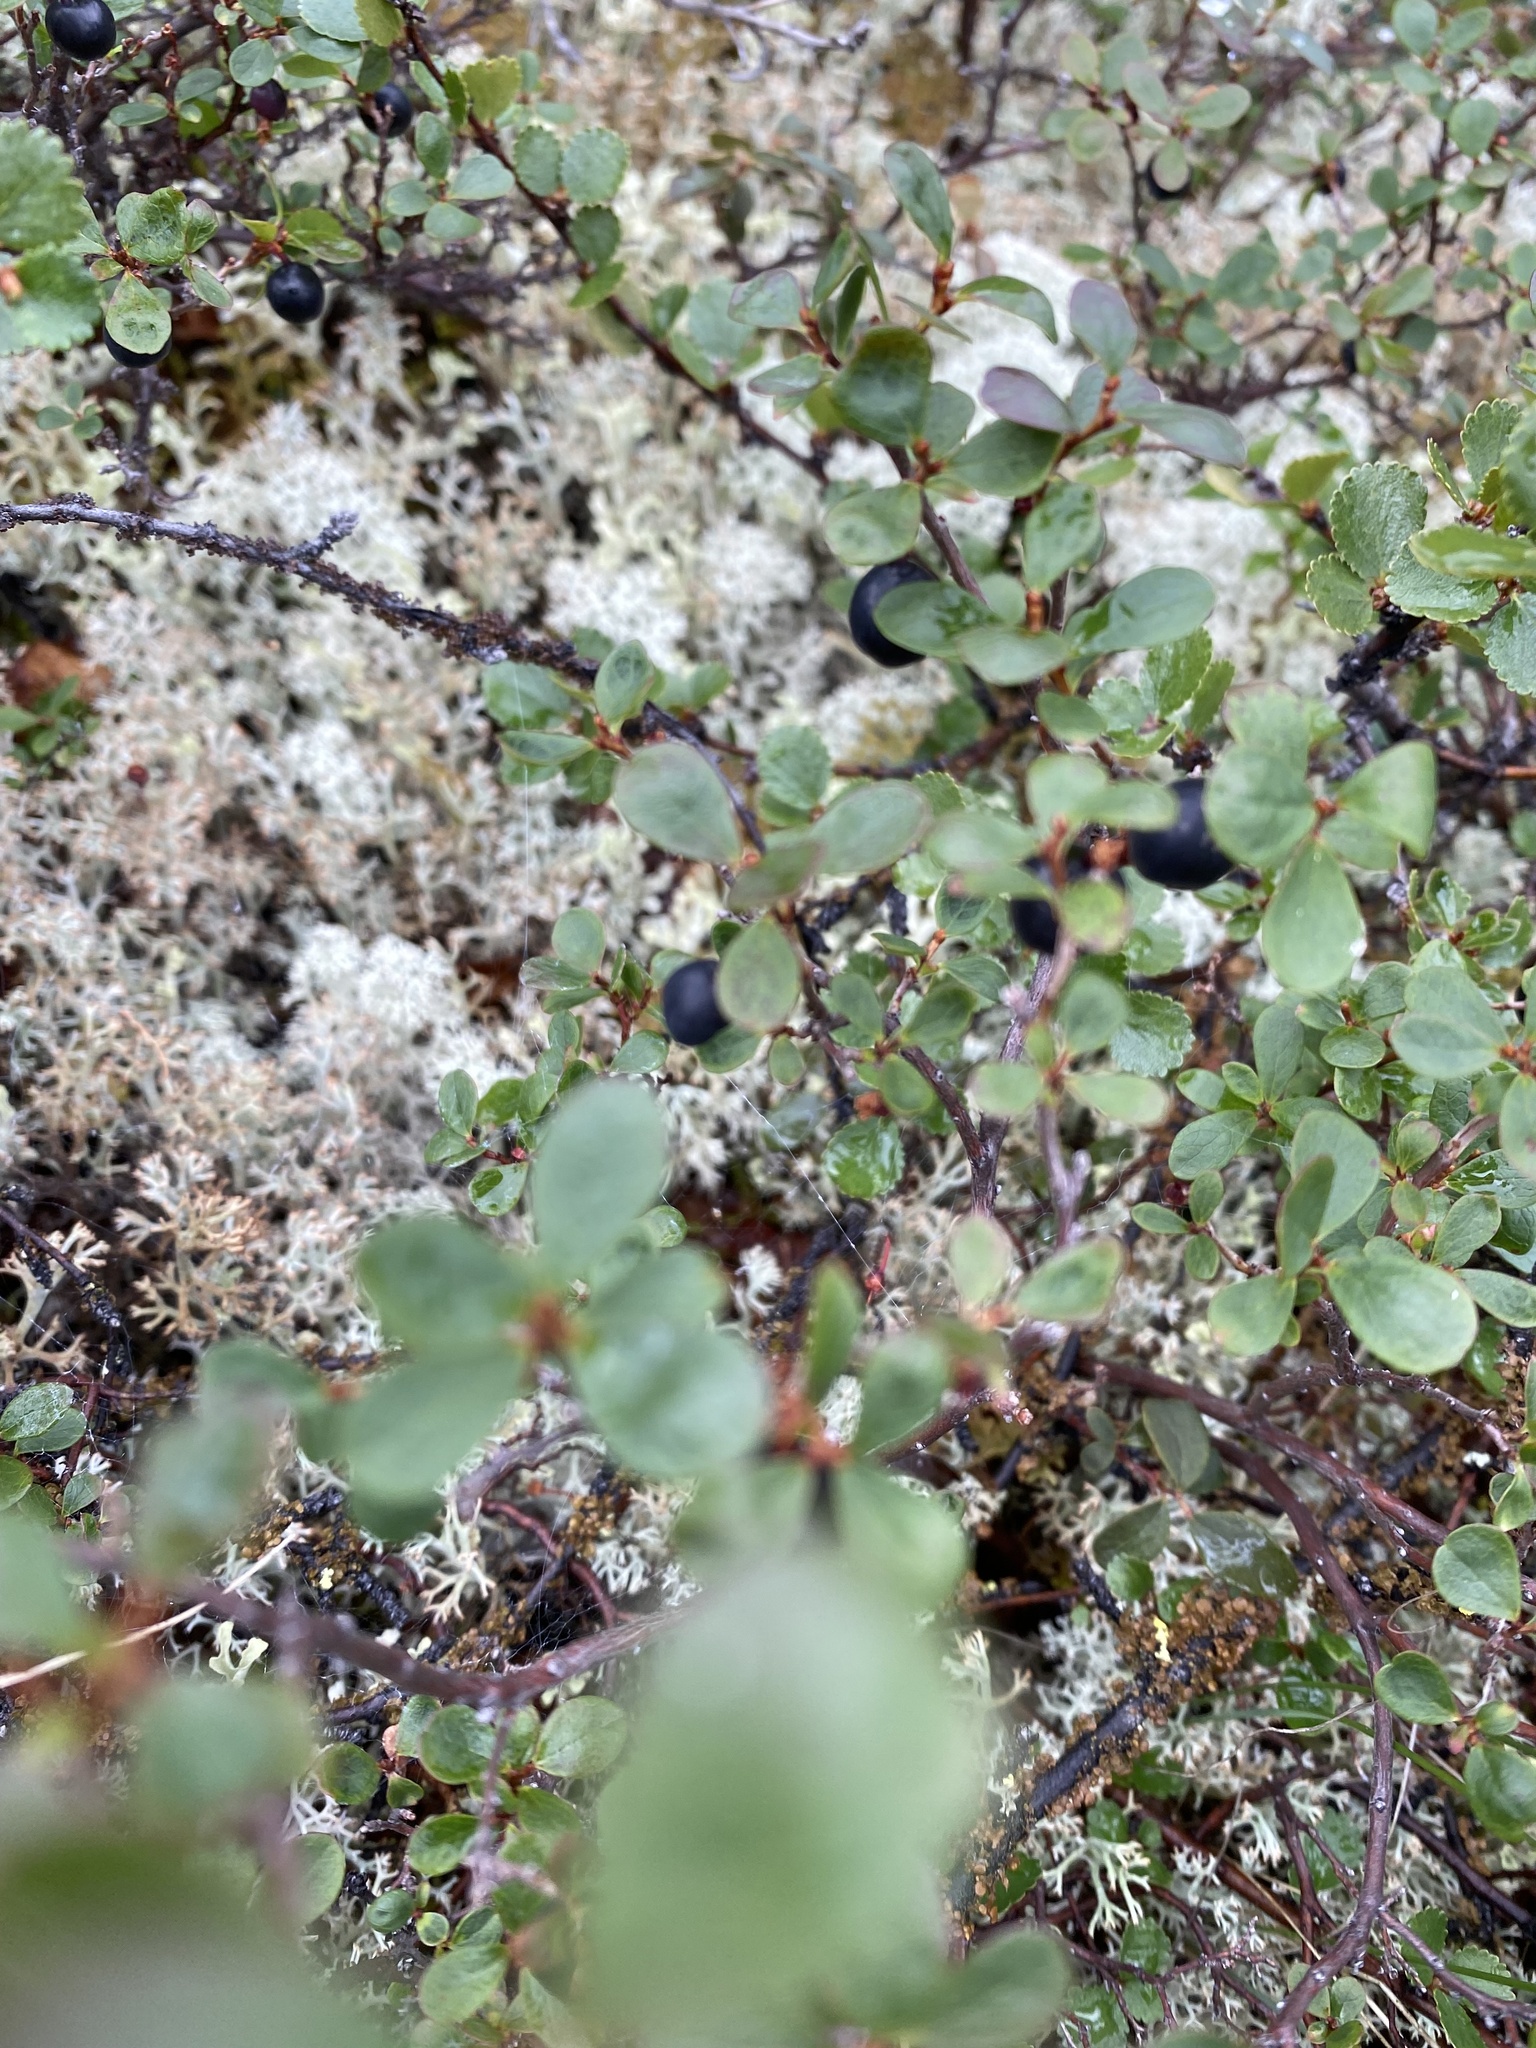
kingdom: Plantae
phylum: Tracheophyta
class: Magnoliopsida
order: Ericales
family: Ericaceae
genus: Vaccinium
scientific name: Vaccinium uliginosum
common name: Bog bilberry
